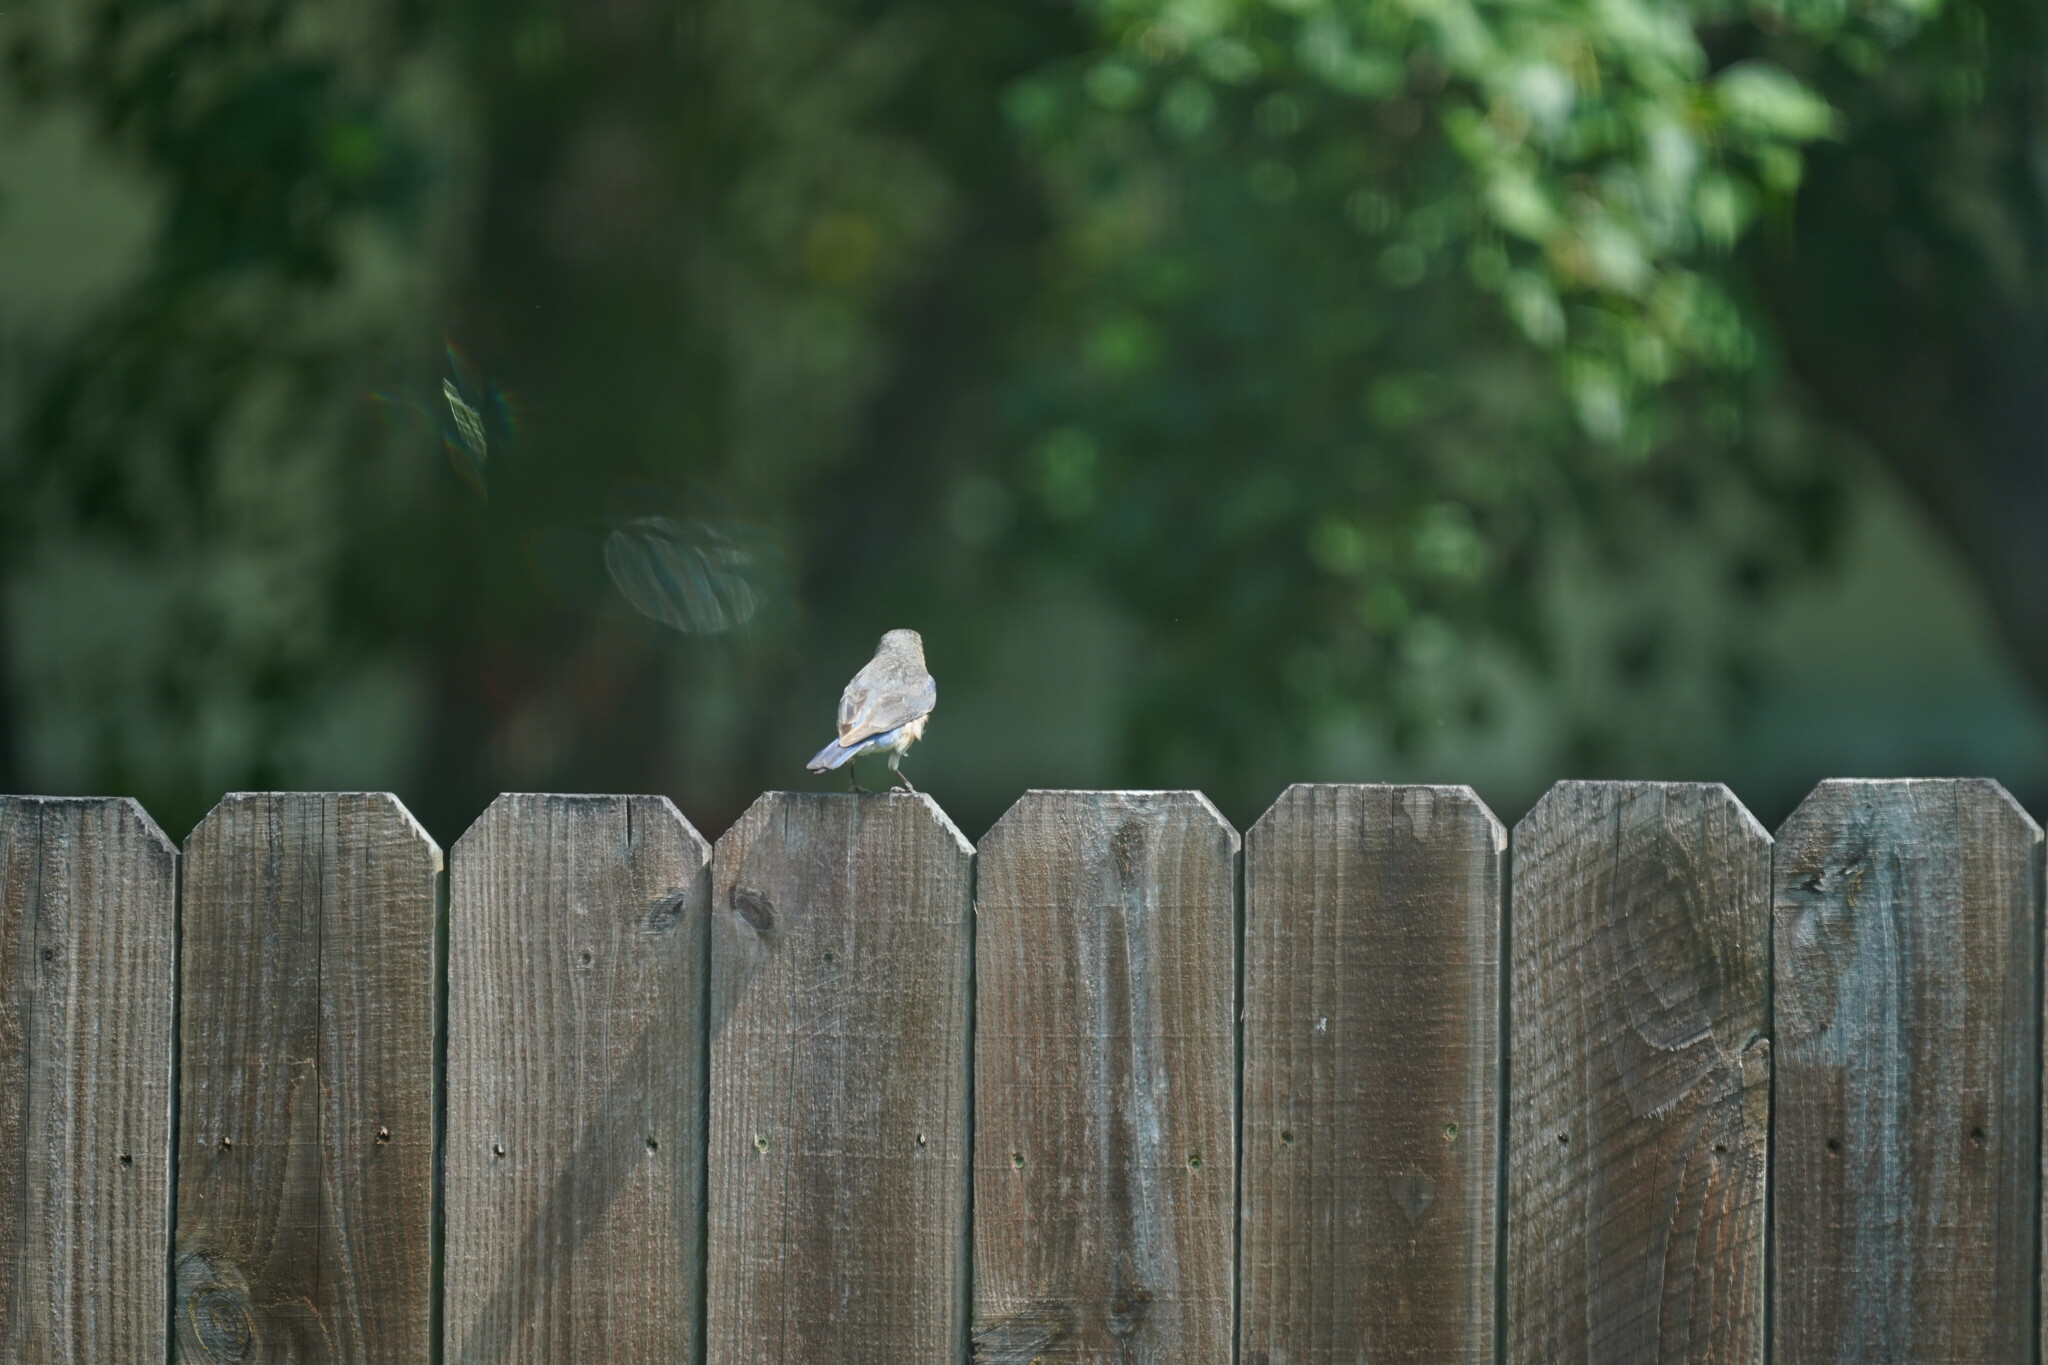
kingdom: Animalia
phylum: Chordata
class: Aves
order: Passeriformes
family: Turdidae
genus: Sialia
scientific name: Sialia sialis
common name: Eastern bluebird
